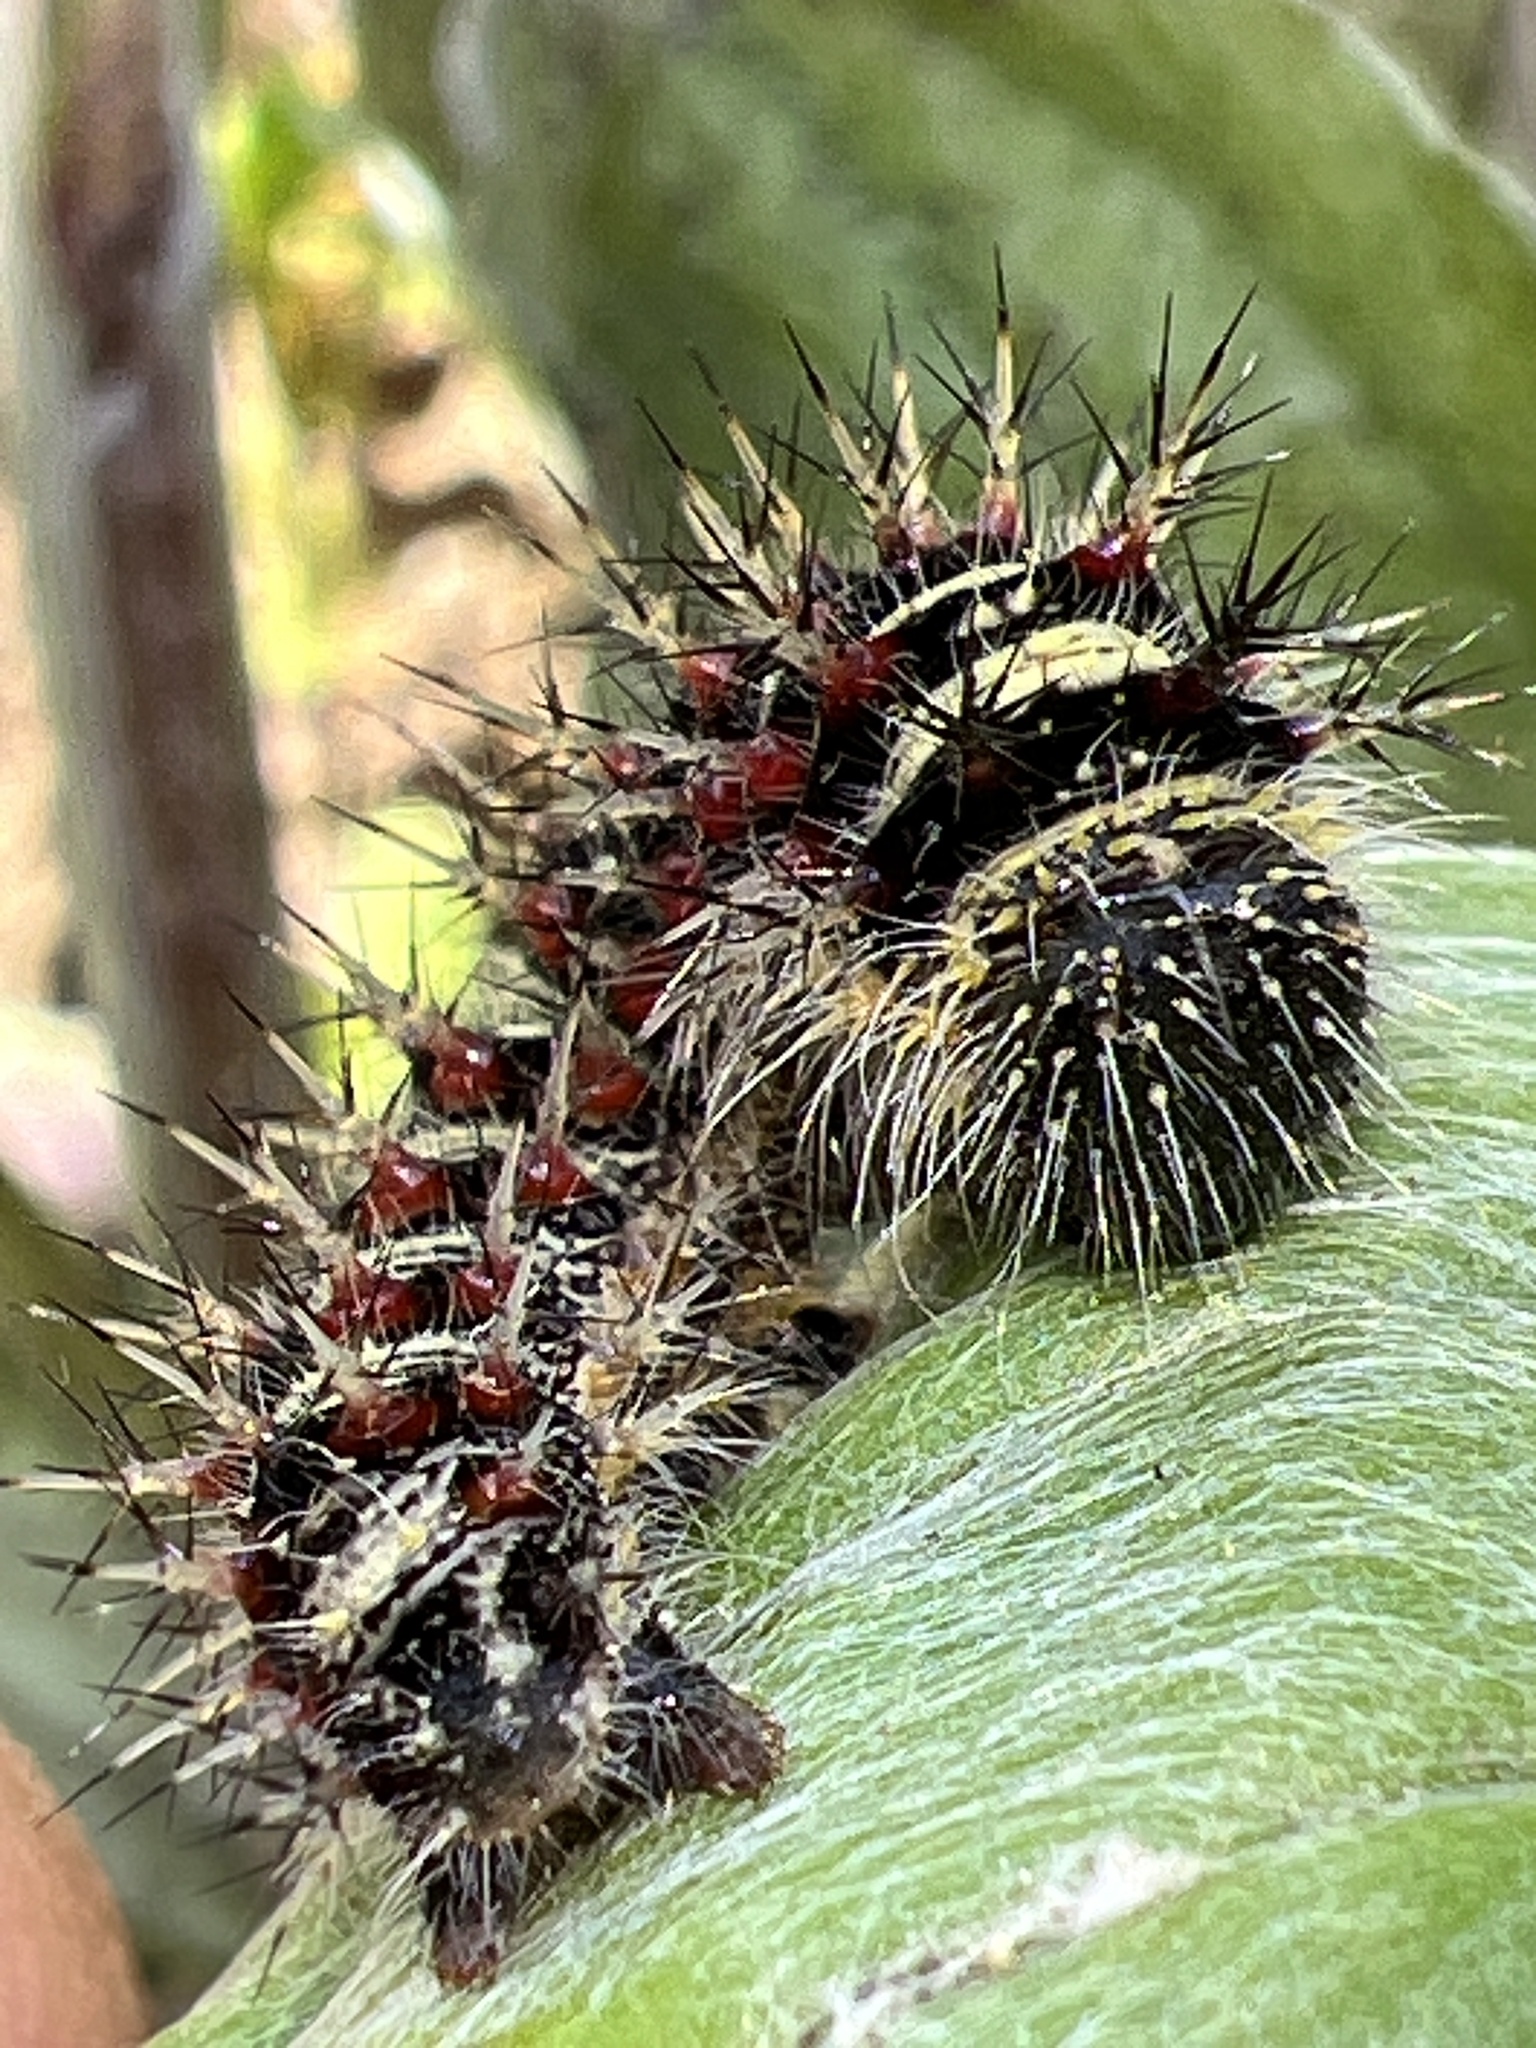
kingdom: Animalia
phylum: Arthropoda
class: Insecta
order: Lepidoptera
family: Nymphalidae
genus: Vanessa
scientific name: Vanessa virginiensis
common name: American lady
